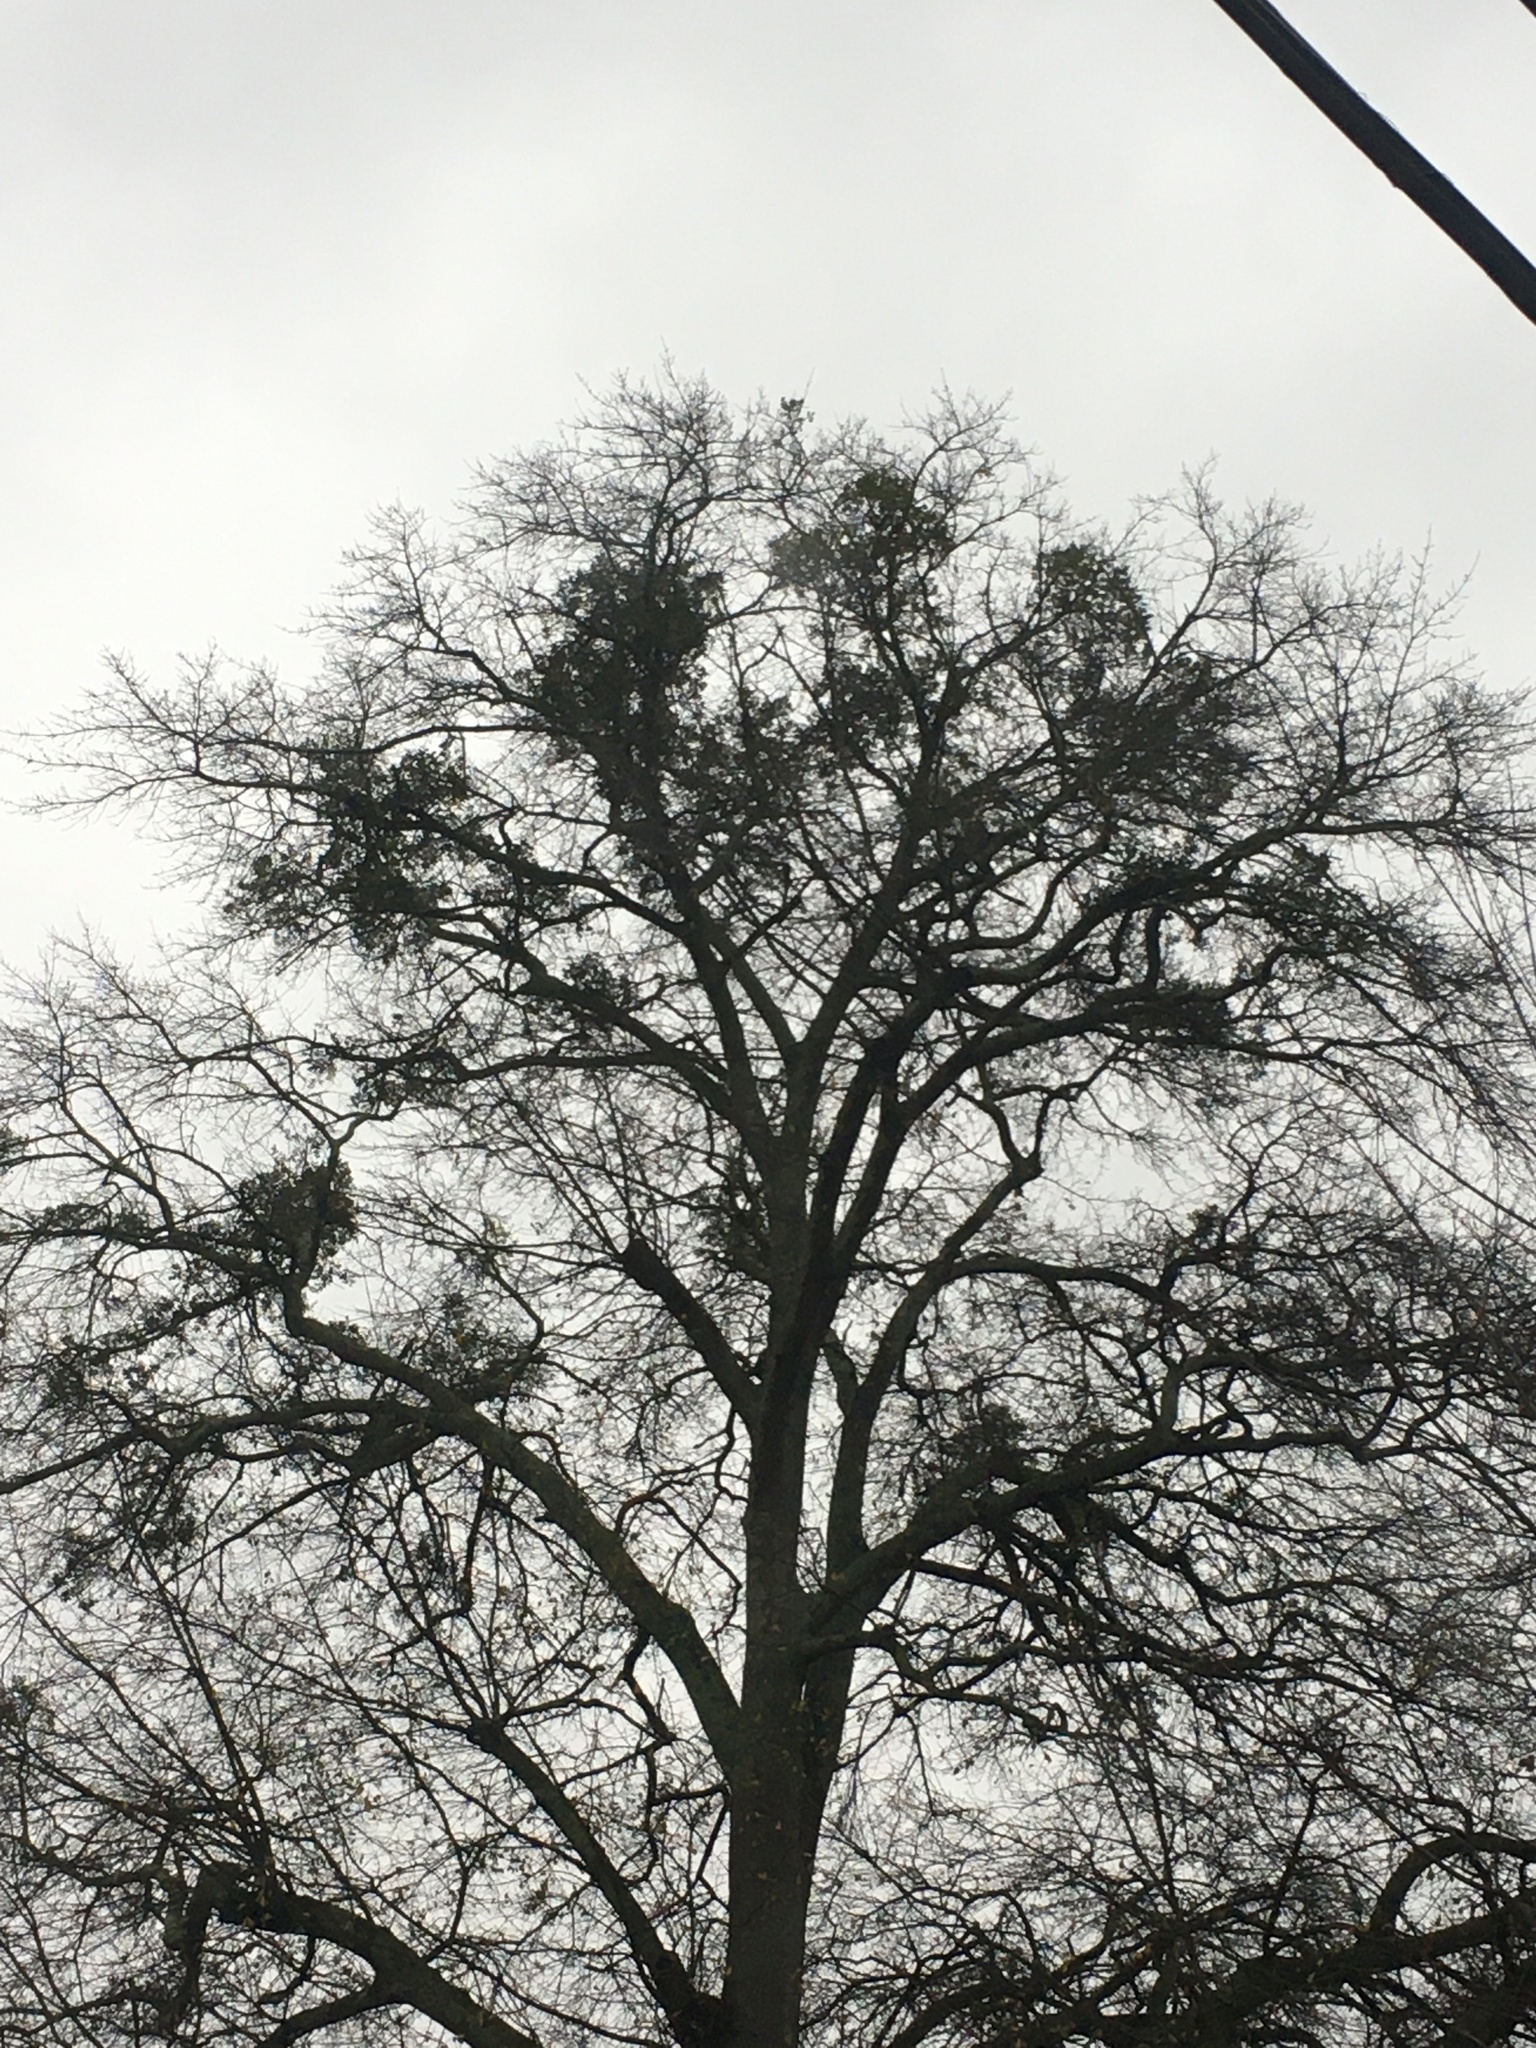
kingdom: Plantae
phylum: Tracheophyta
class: Magnoliopsida
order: Santalales
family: Viscaceae
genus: Phoradendron
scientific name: Phoradendron leucarpum
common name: Pacific mistletoe
